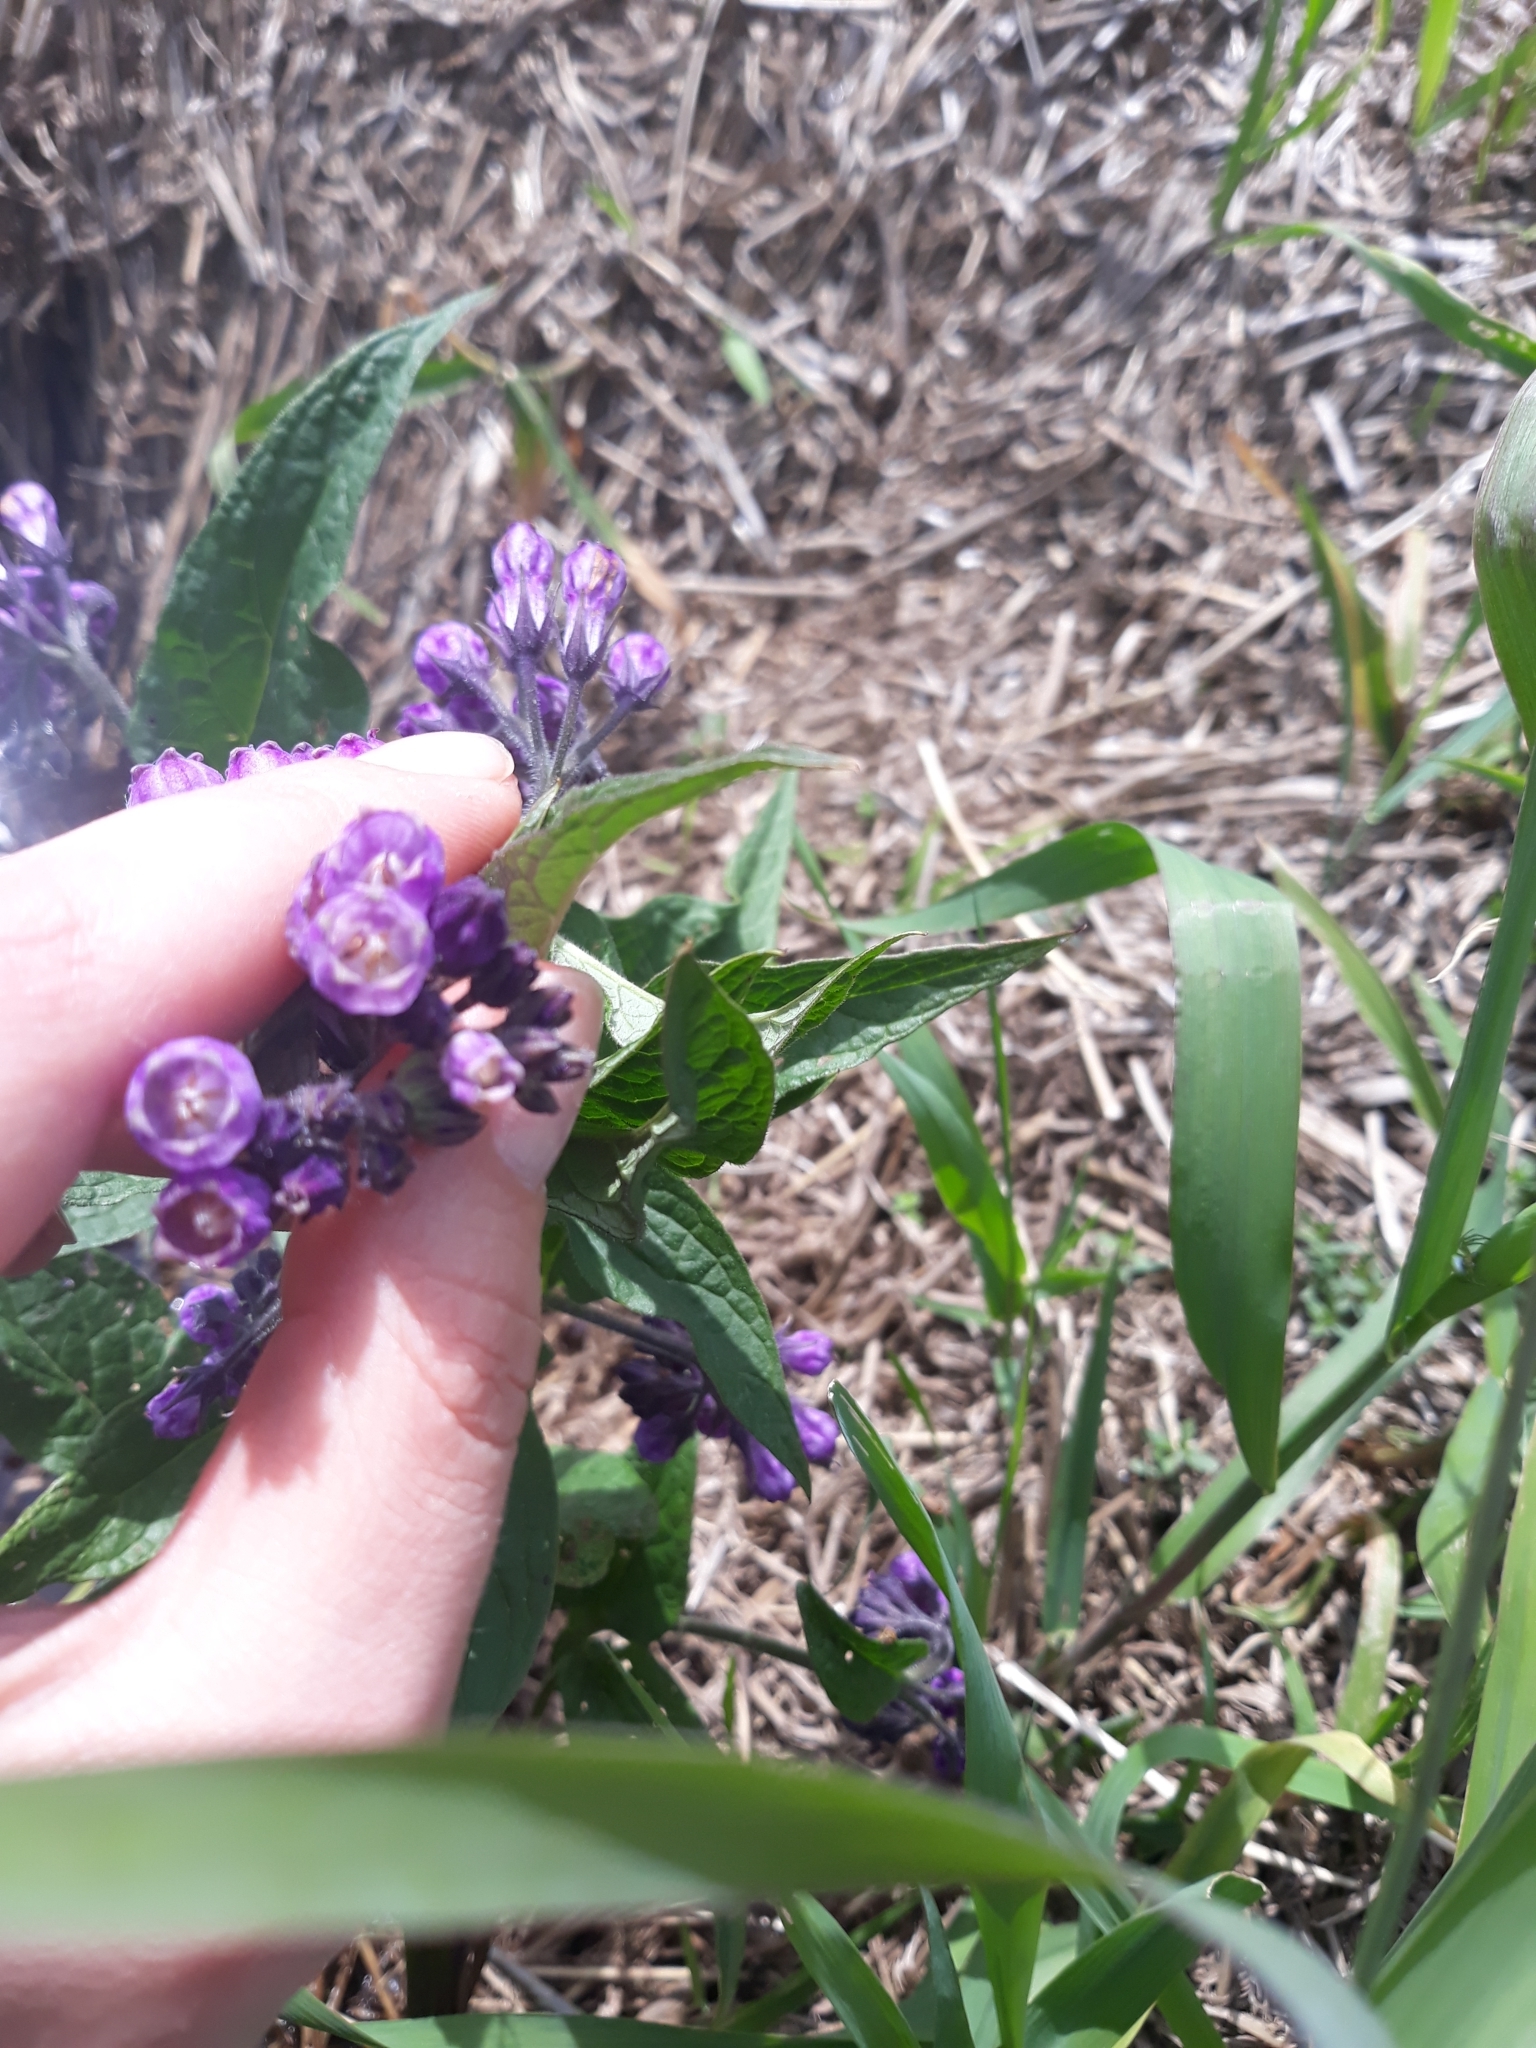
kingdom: Plantae
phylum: Tracheophyta
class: Magnoliopsida
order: Boraginales
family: Boraginaceae
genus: Symphytum
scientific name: Symphytum officinale
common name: Common comfrey
